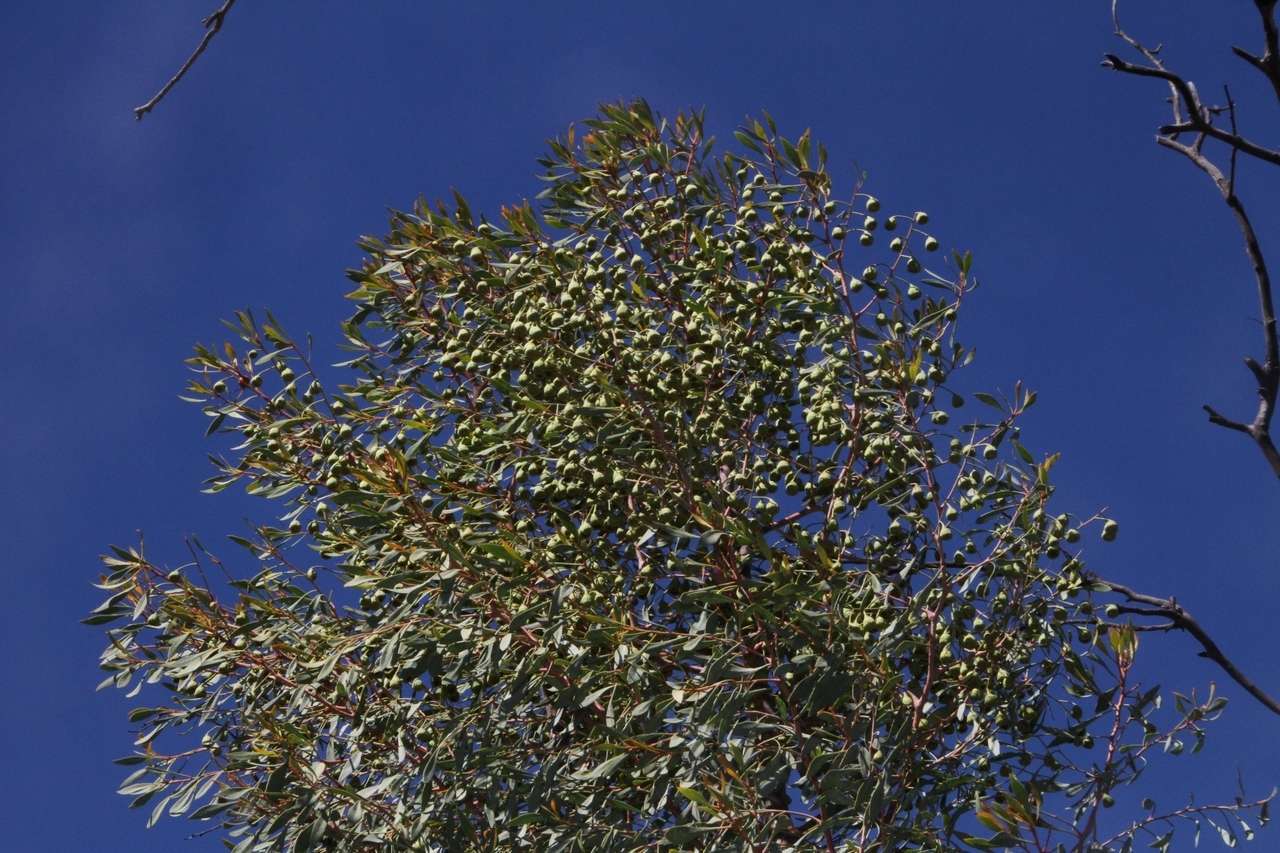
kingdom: Plantae
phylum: Tracheophyta
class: Magnoliopsida
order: Brassicales
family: Gyrostemonaceae
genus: Codonocarpus
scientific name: Codonocarpus cotinifolius
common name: Mustardtree
